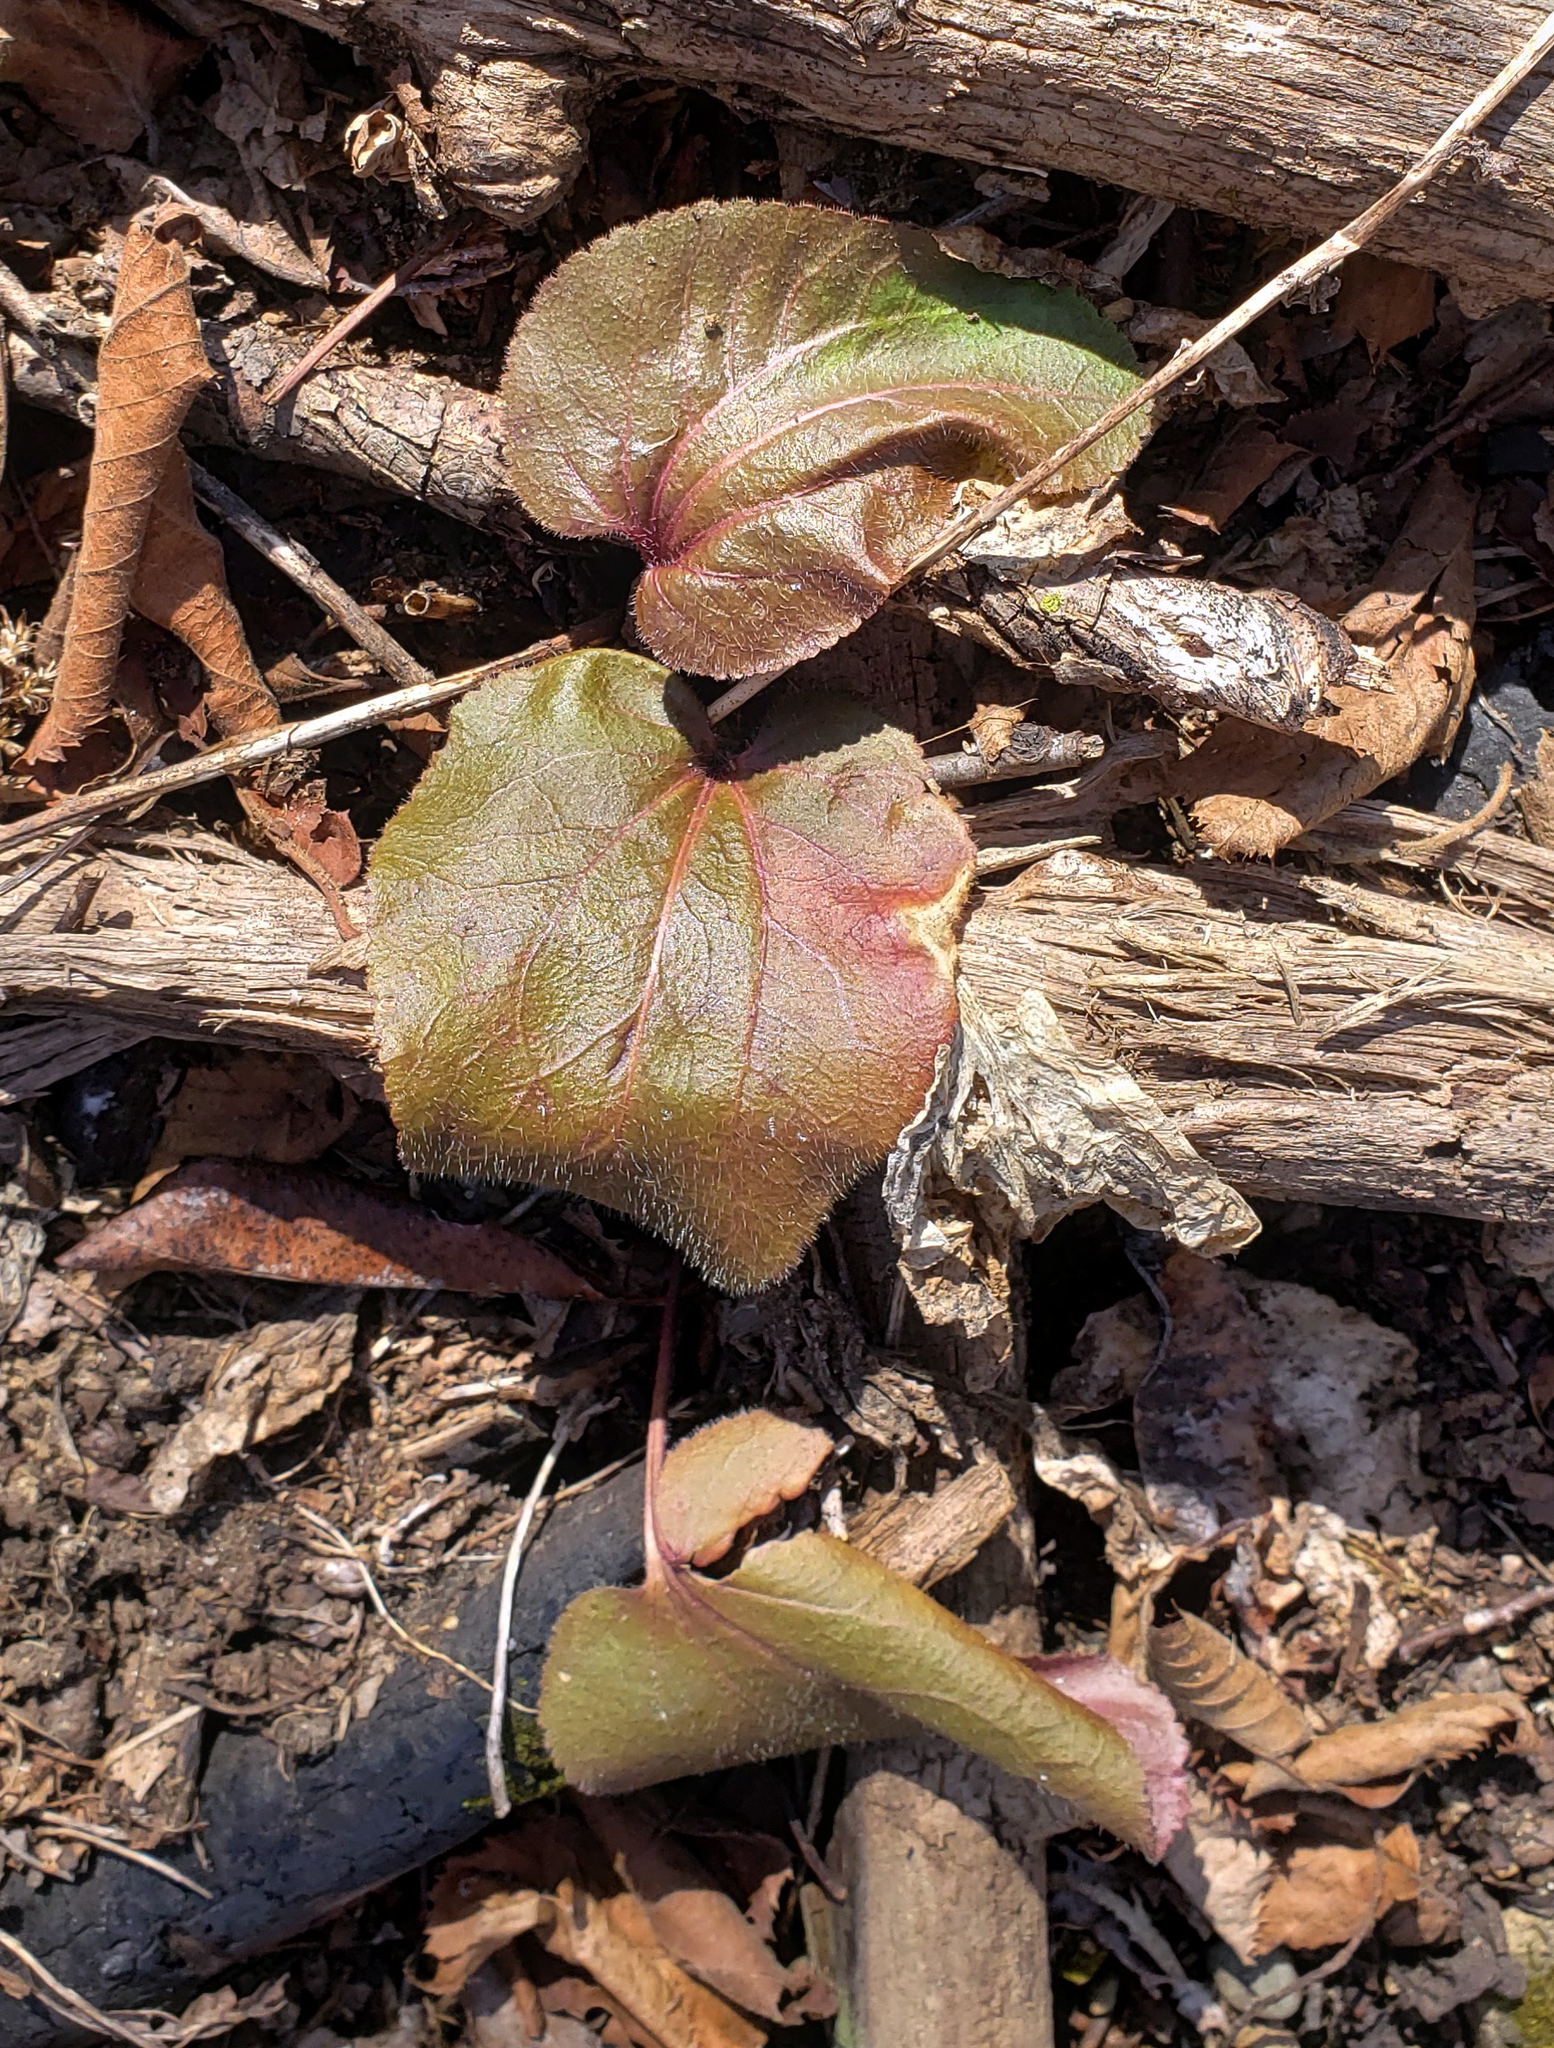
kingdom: Plantae
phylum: Tracheophyta
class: Magnoliopsida
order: Lamiales
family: Plantaginaceae
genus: Synthyris
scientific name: Synthyris bullii
